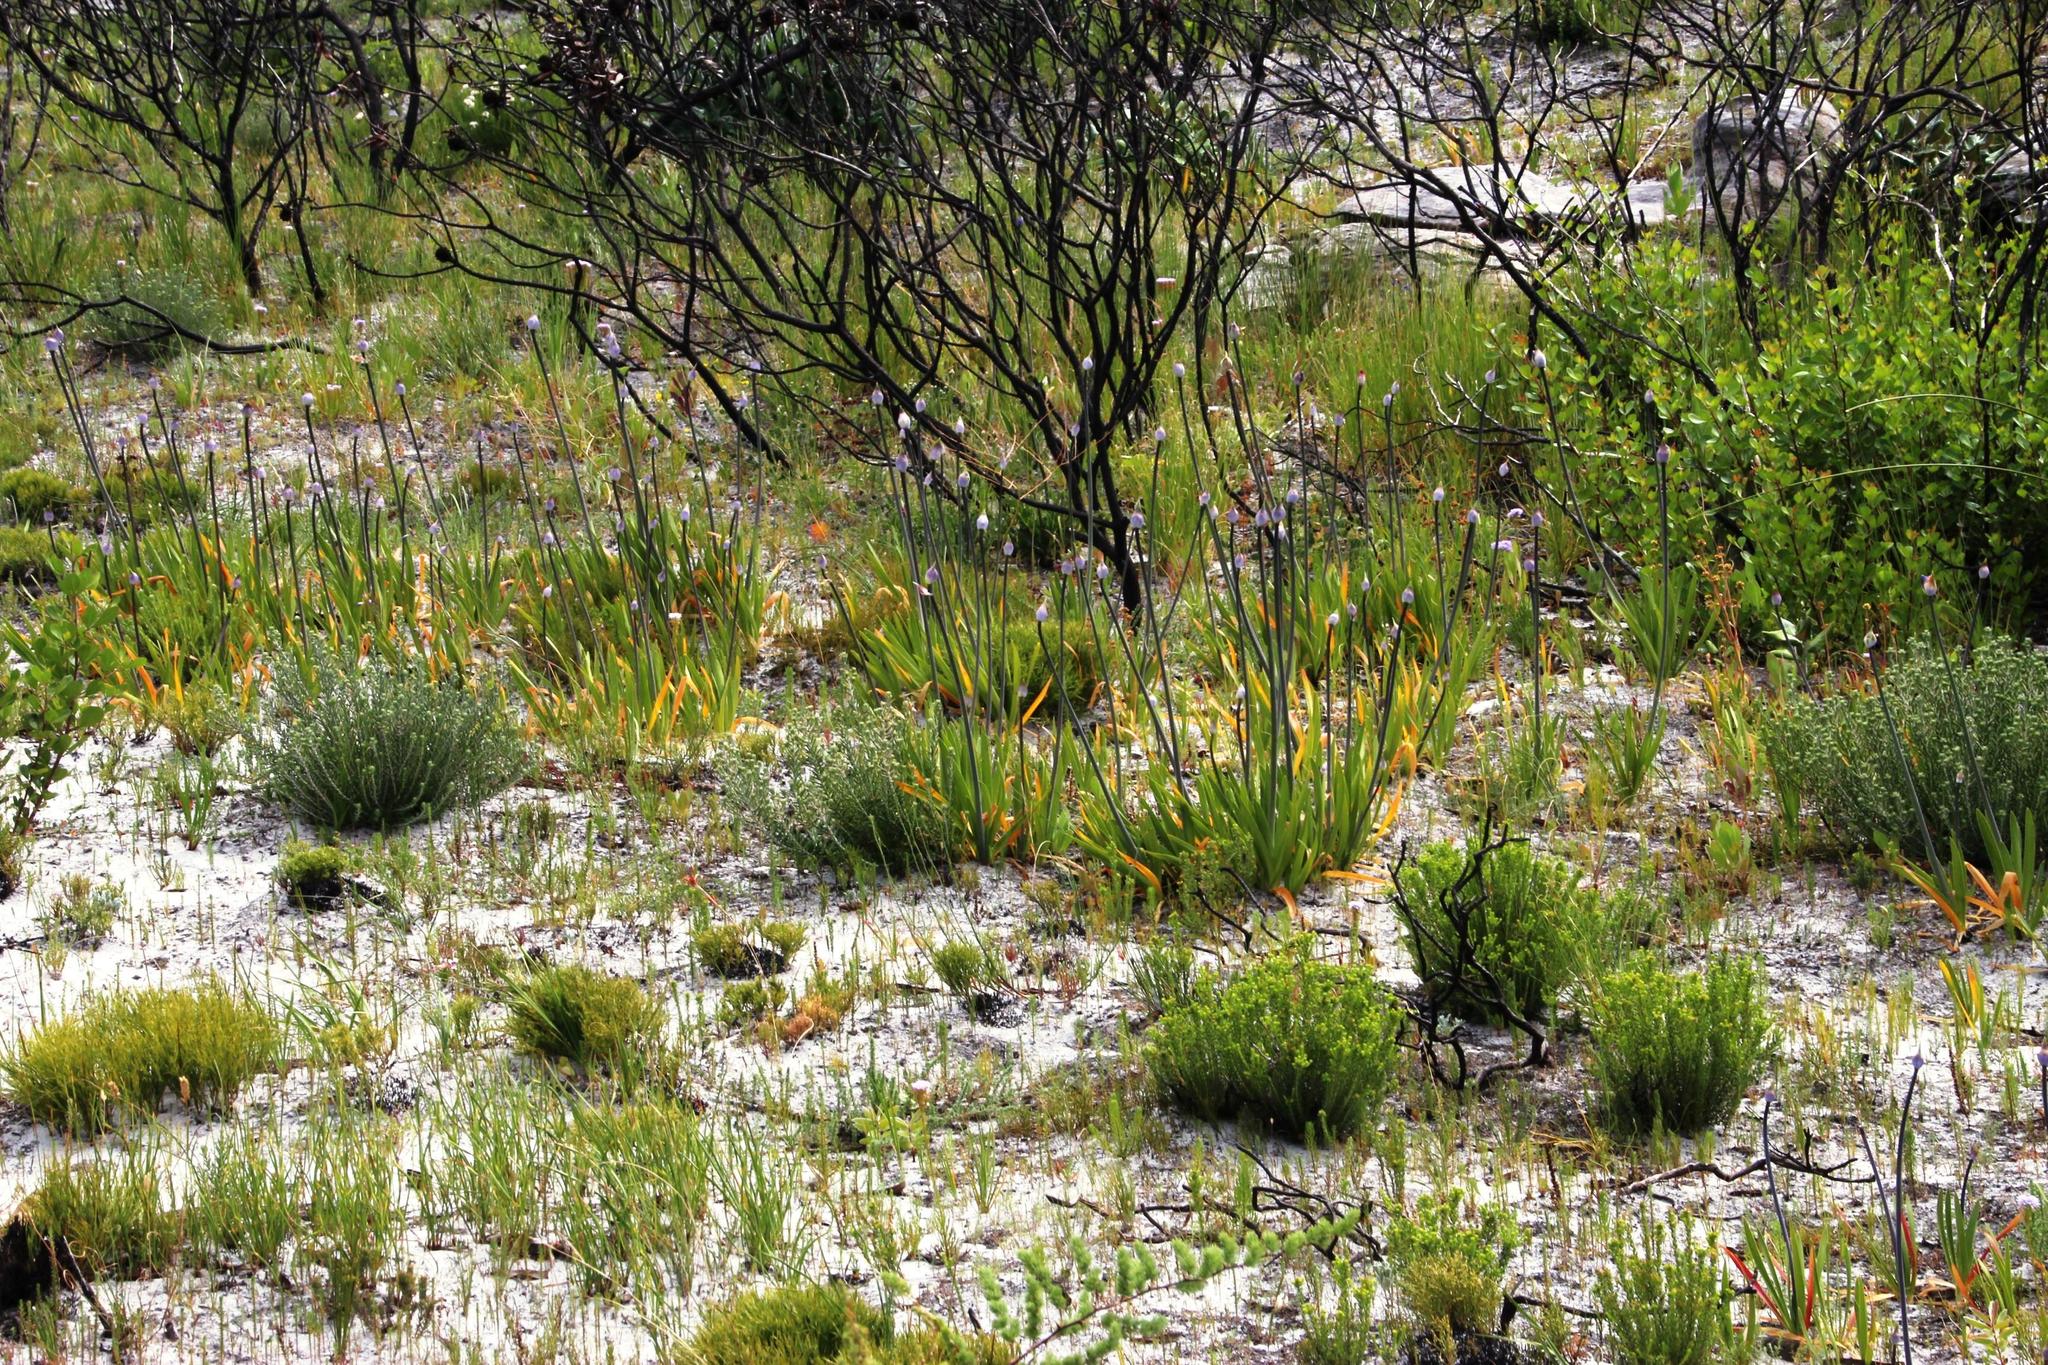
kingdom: Plantae
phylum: Tracheophyta
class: Liliopsida
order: Asparagales
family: Amaryllidaceae
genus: Agapanthus
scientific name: Agapanthus africanus
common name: Lily-of-the-nile
